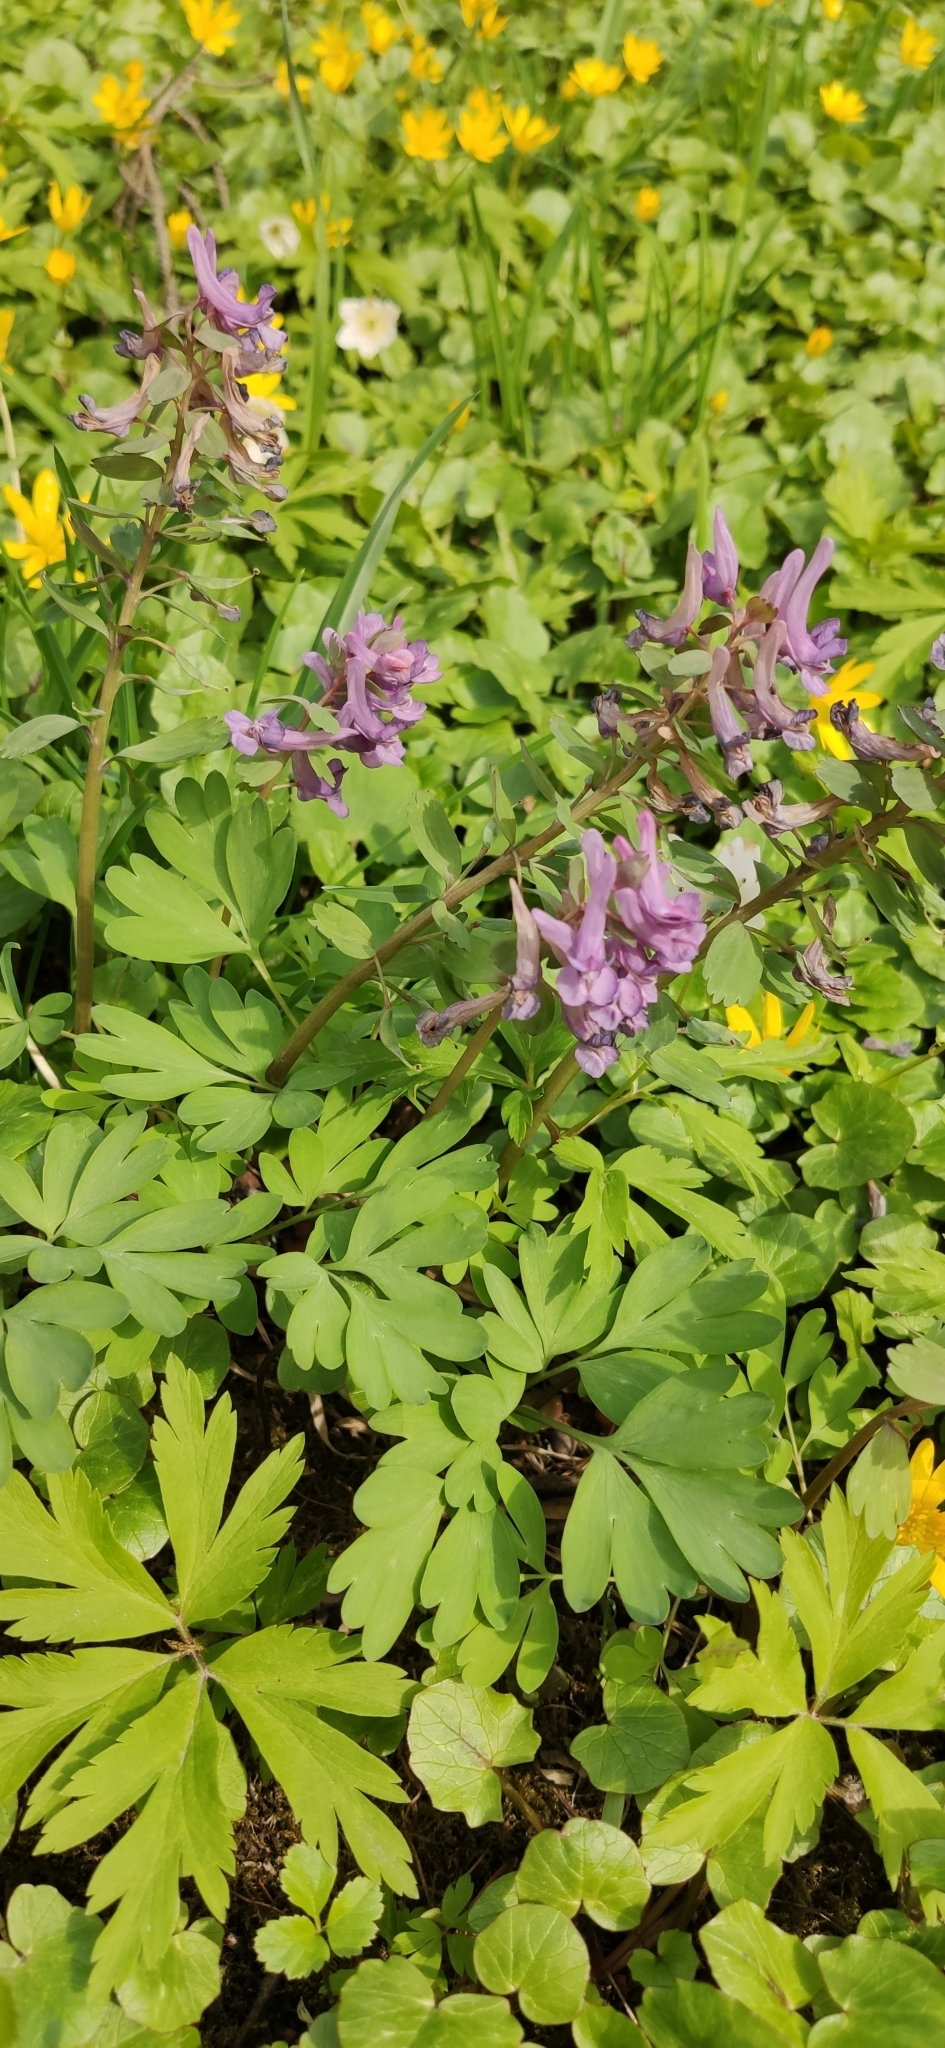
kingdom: Plantae
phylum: Tracheophyta
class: Magnoliopsida
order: Ranunculales
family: Papaveraceae
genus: Corydalis
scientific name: Corydalis solida
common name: Bird-in-a-bush
